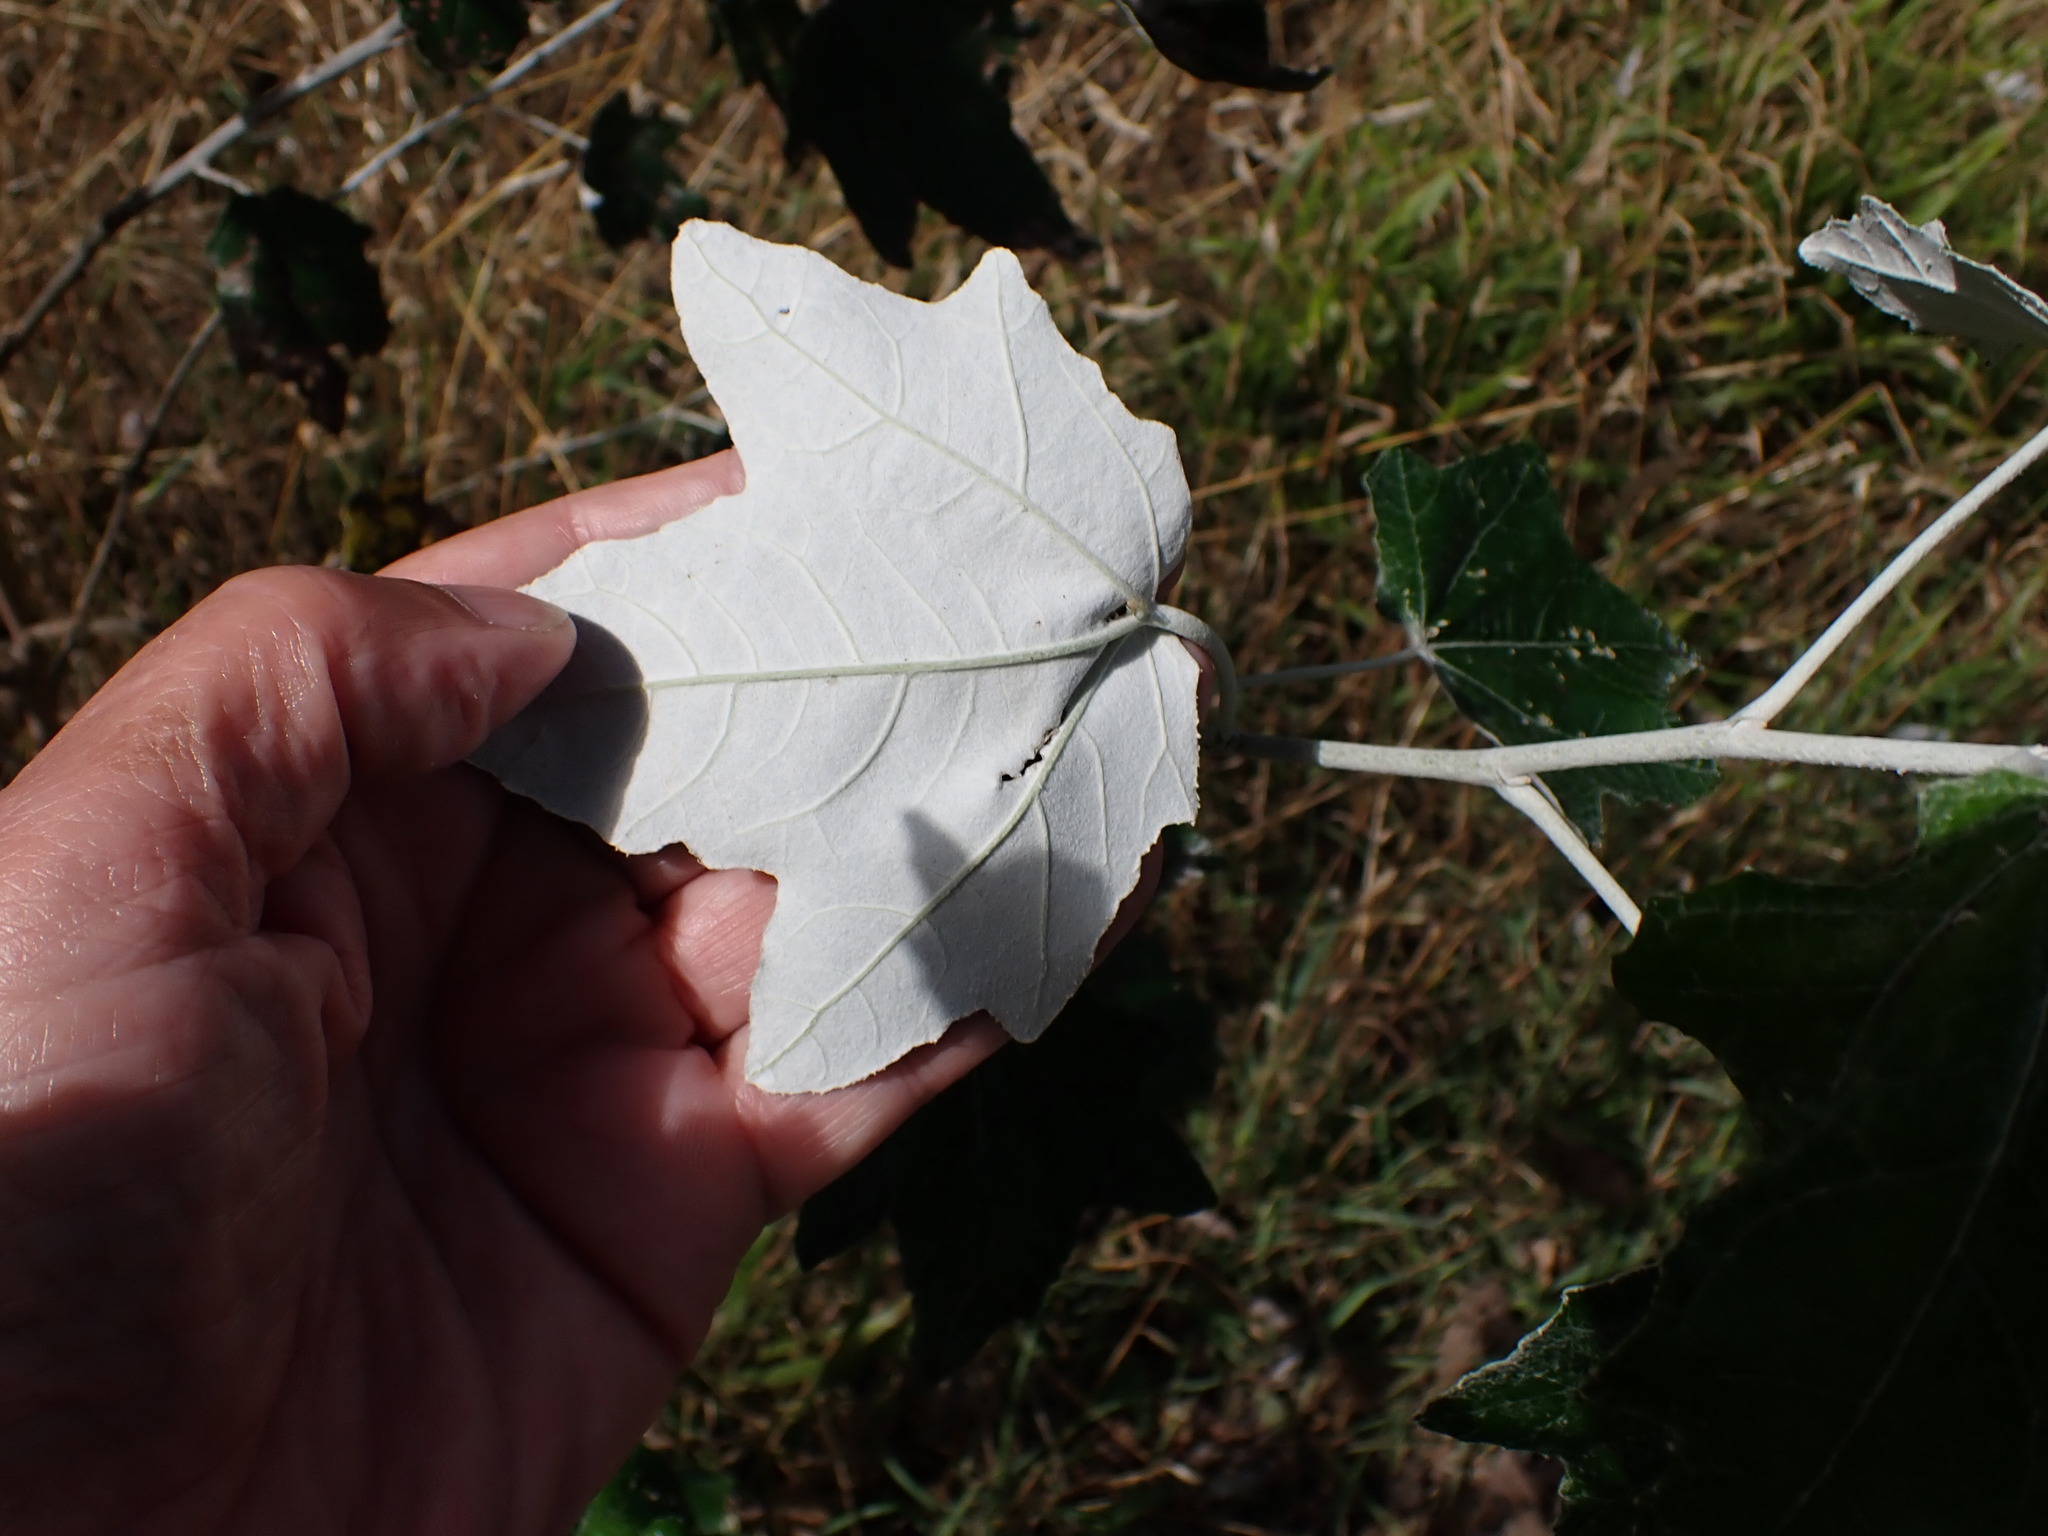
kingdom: Plantae
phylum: Tracheophyta
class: Magnoliopsida
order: Malpighiales
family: Salicaceae
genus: Populus
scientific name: Populus alba
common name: White poplar
